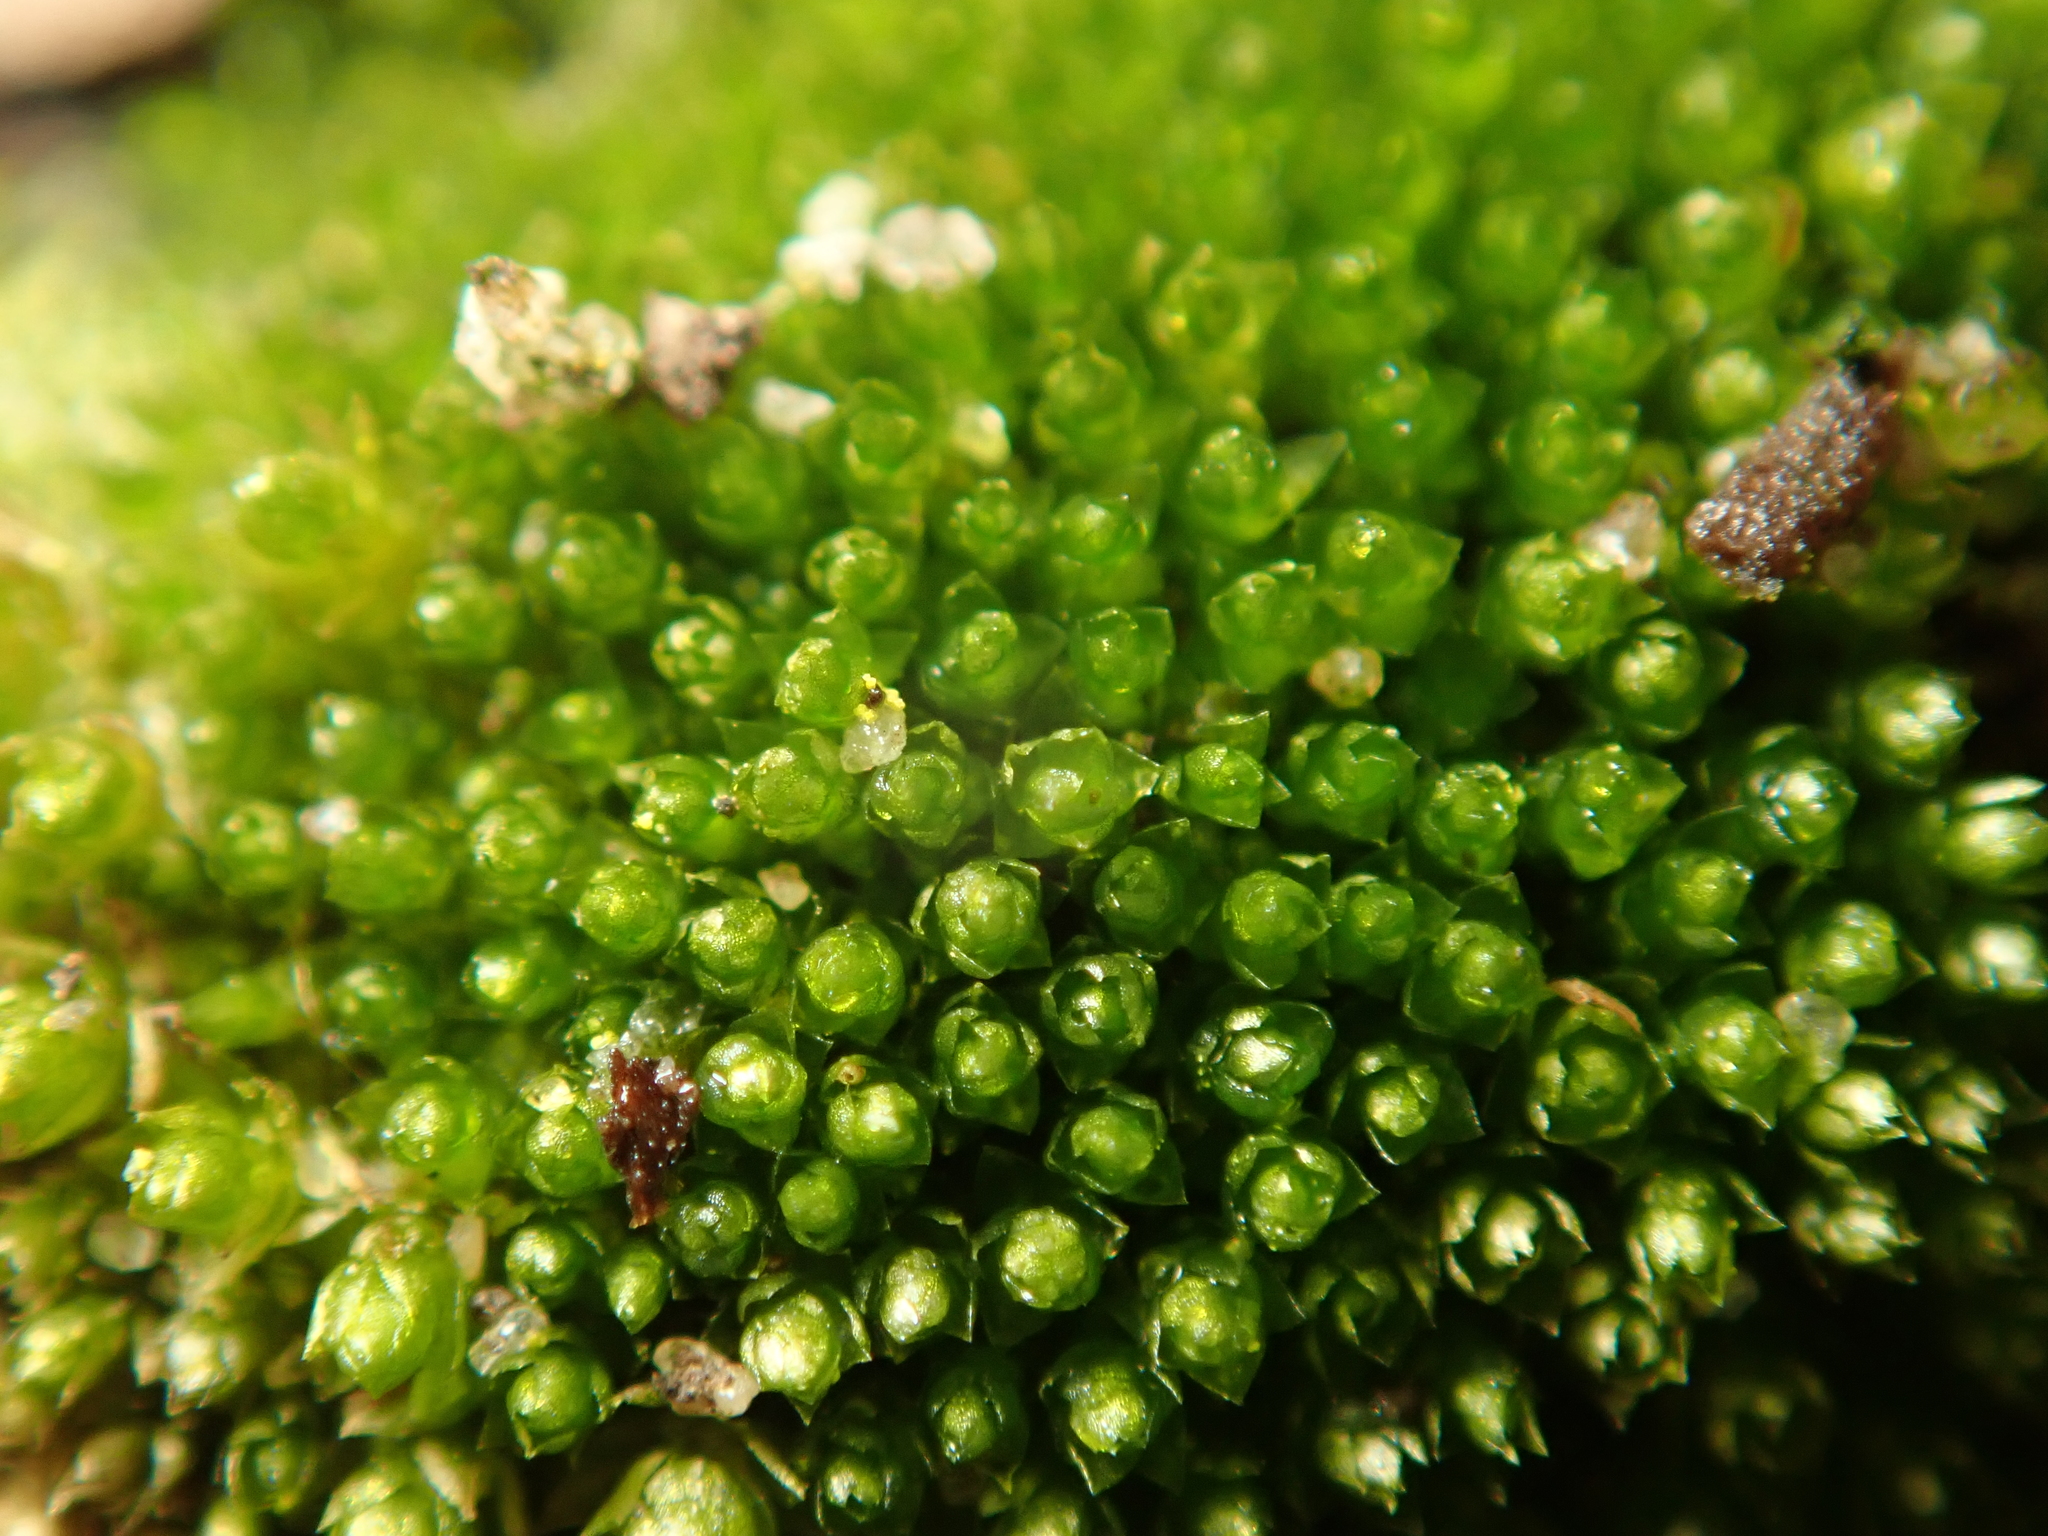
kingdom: Plantae
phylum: Bryophyta
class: Bryopsida
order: Bryales
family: Bryaceae
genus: Bryum
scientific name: Bryum argenteum
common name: Silver-moss
